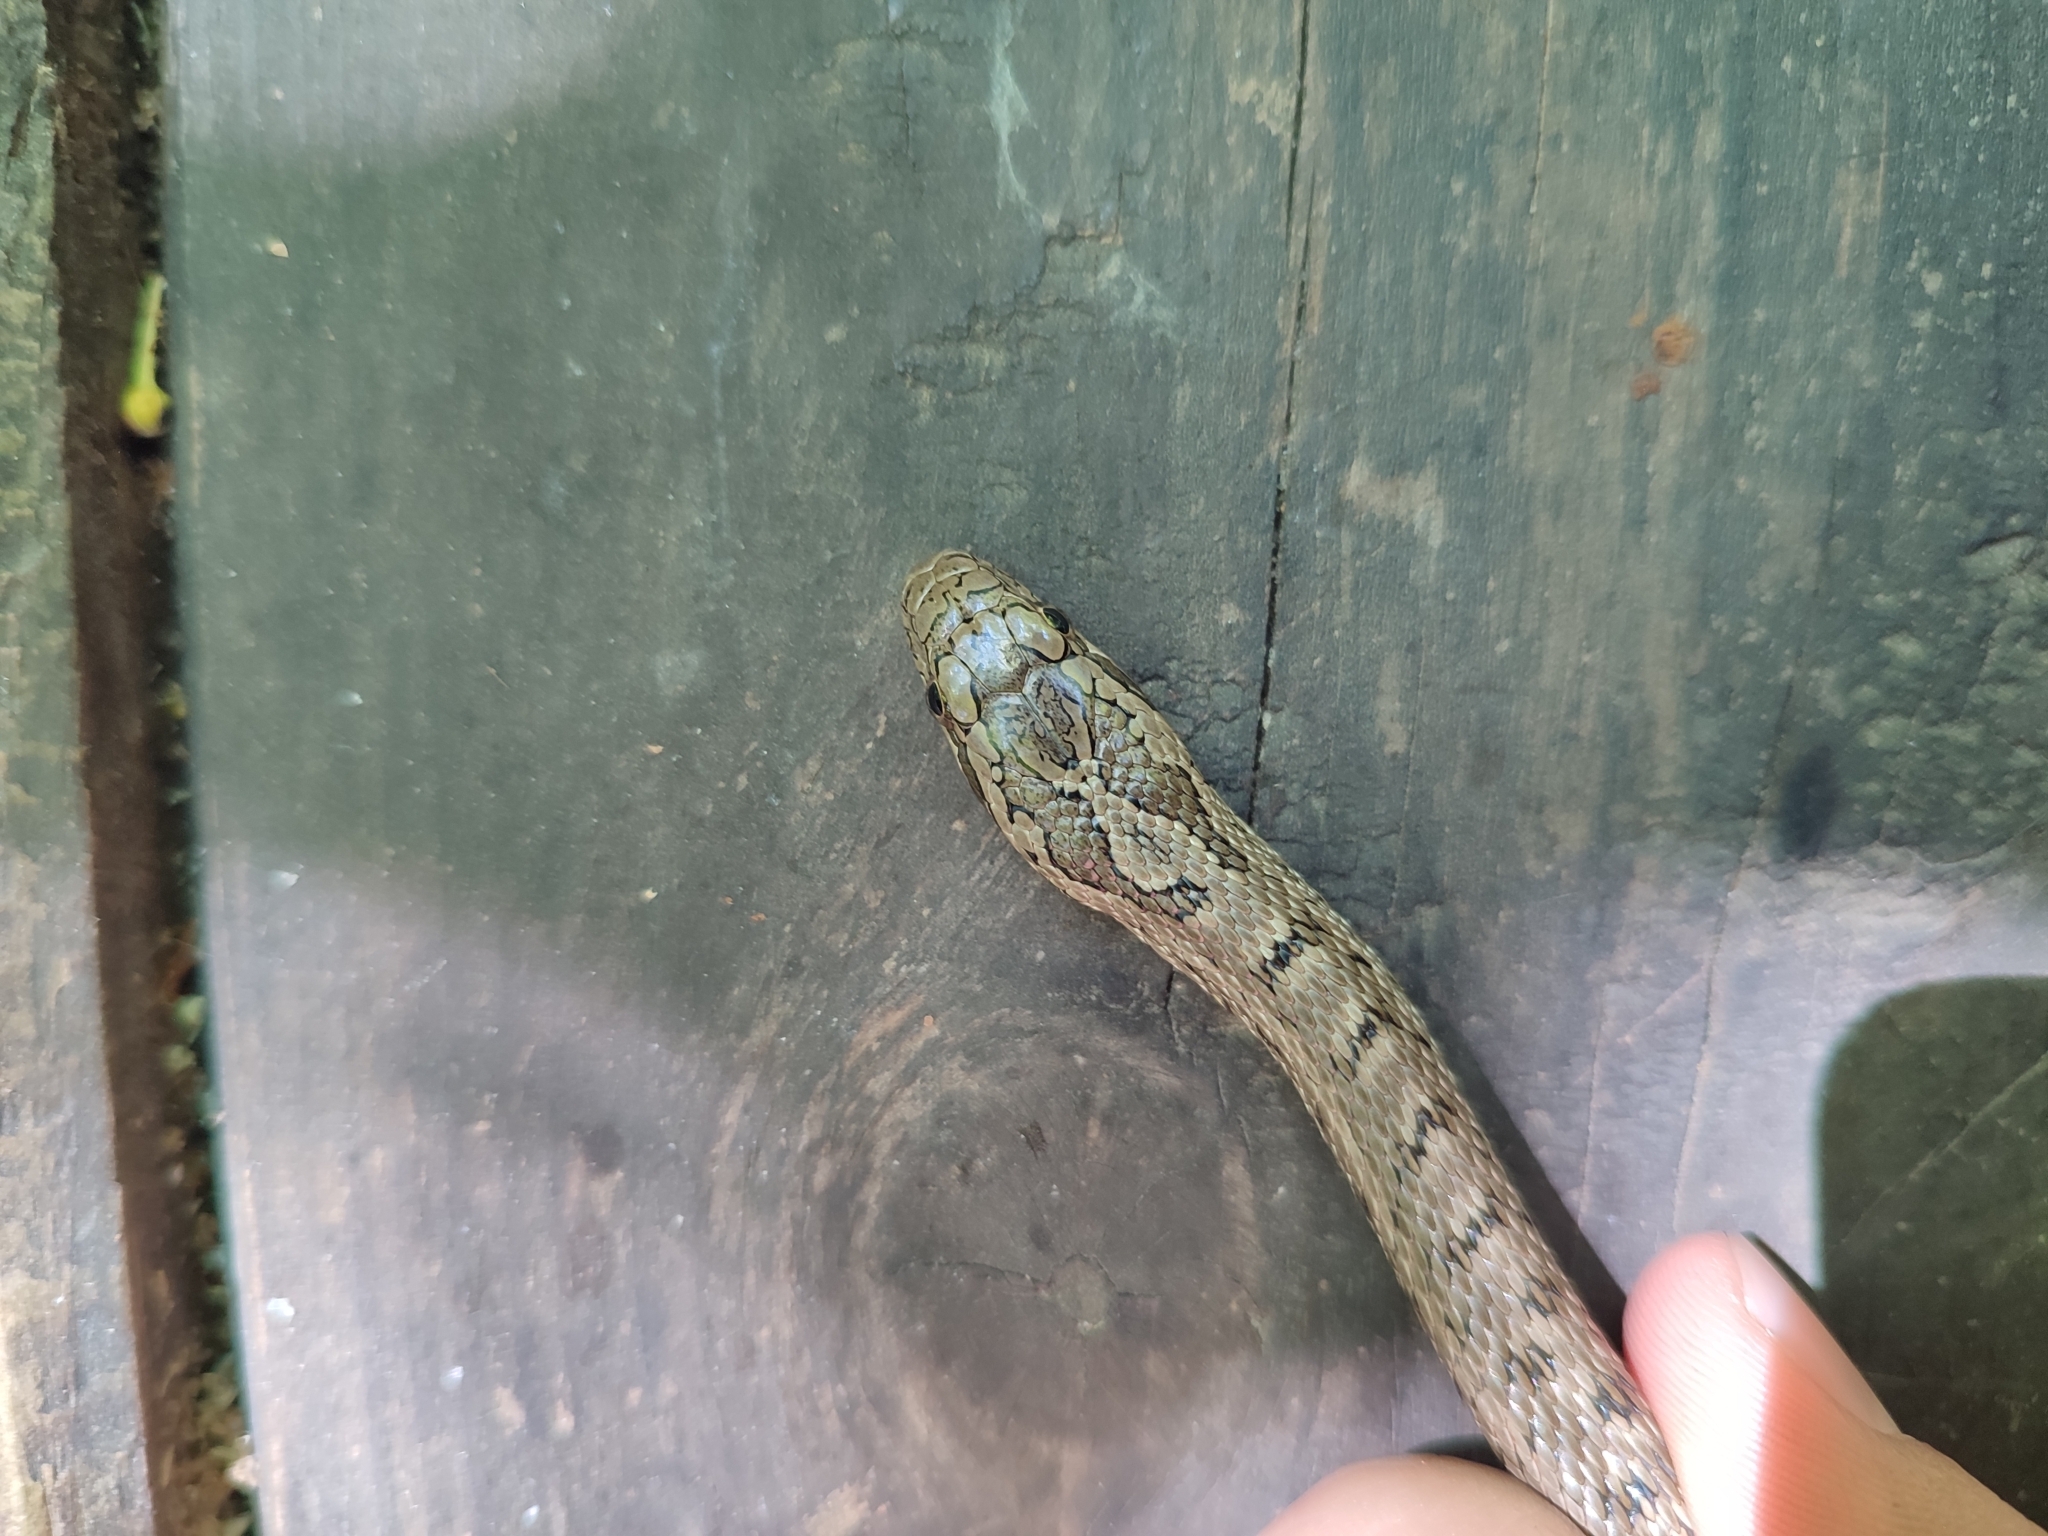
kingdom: Animalia
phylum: Chordata
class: Squamata
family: Colubridae
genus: Elaphe
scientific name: Elaphe dione
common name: Dione ratsnake
